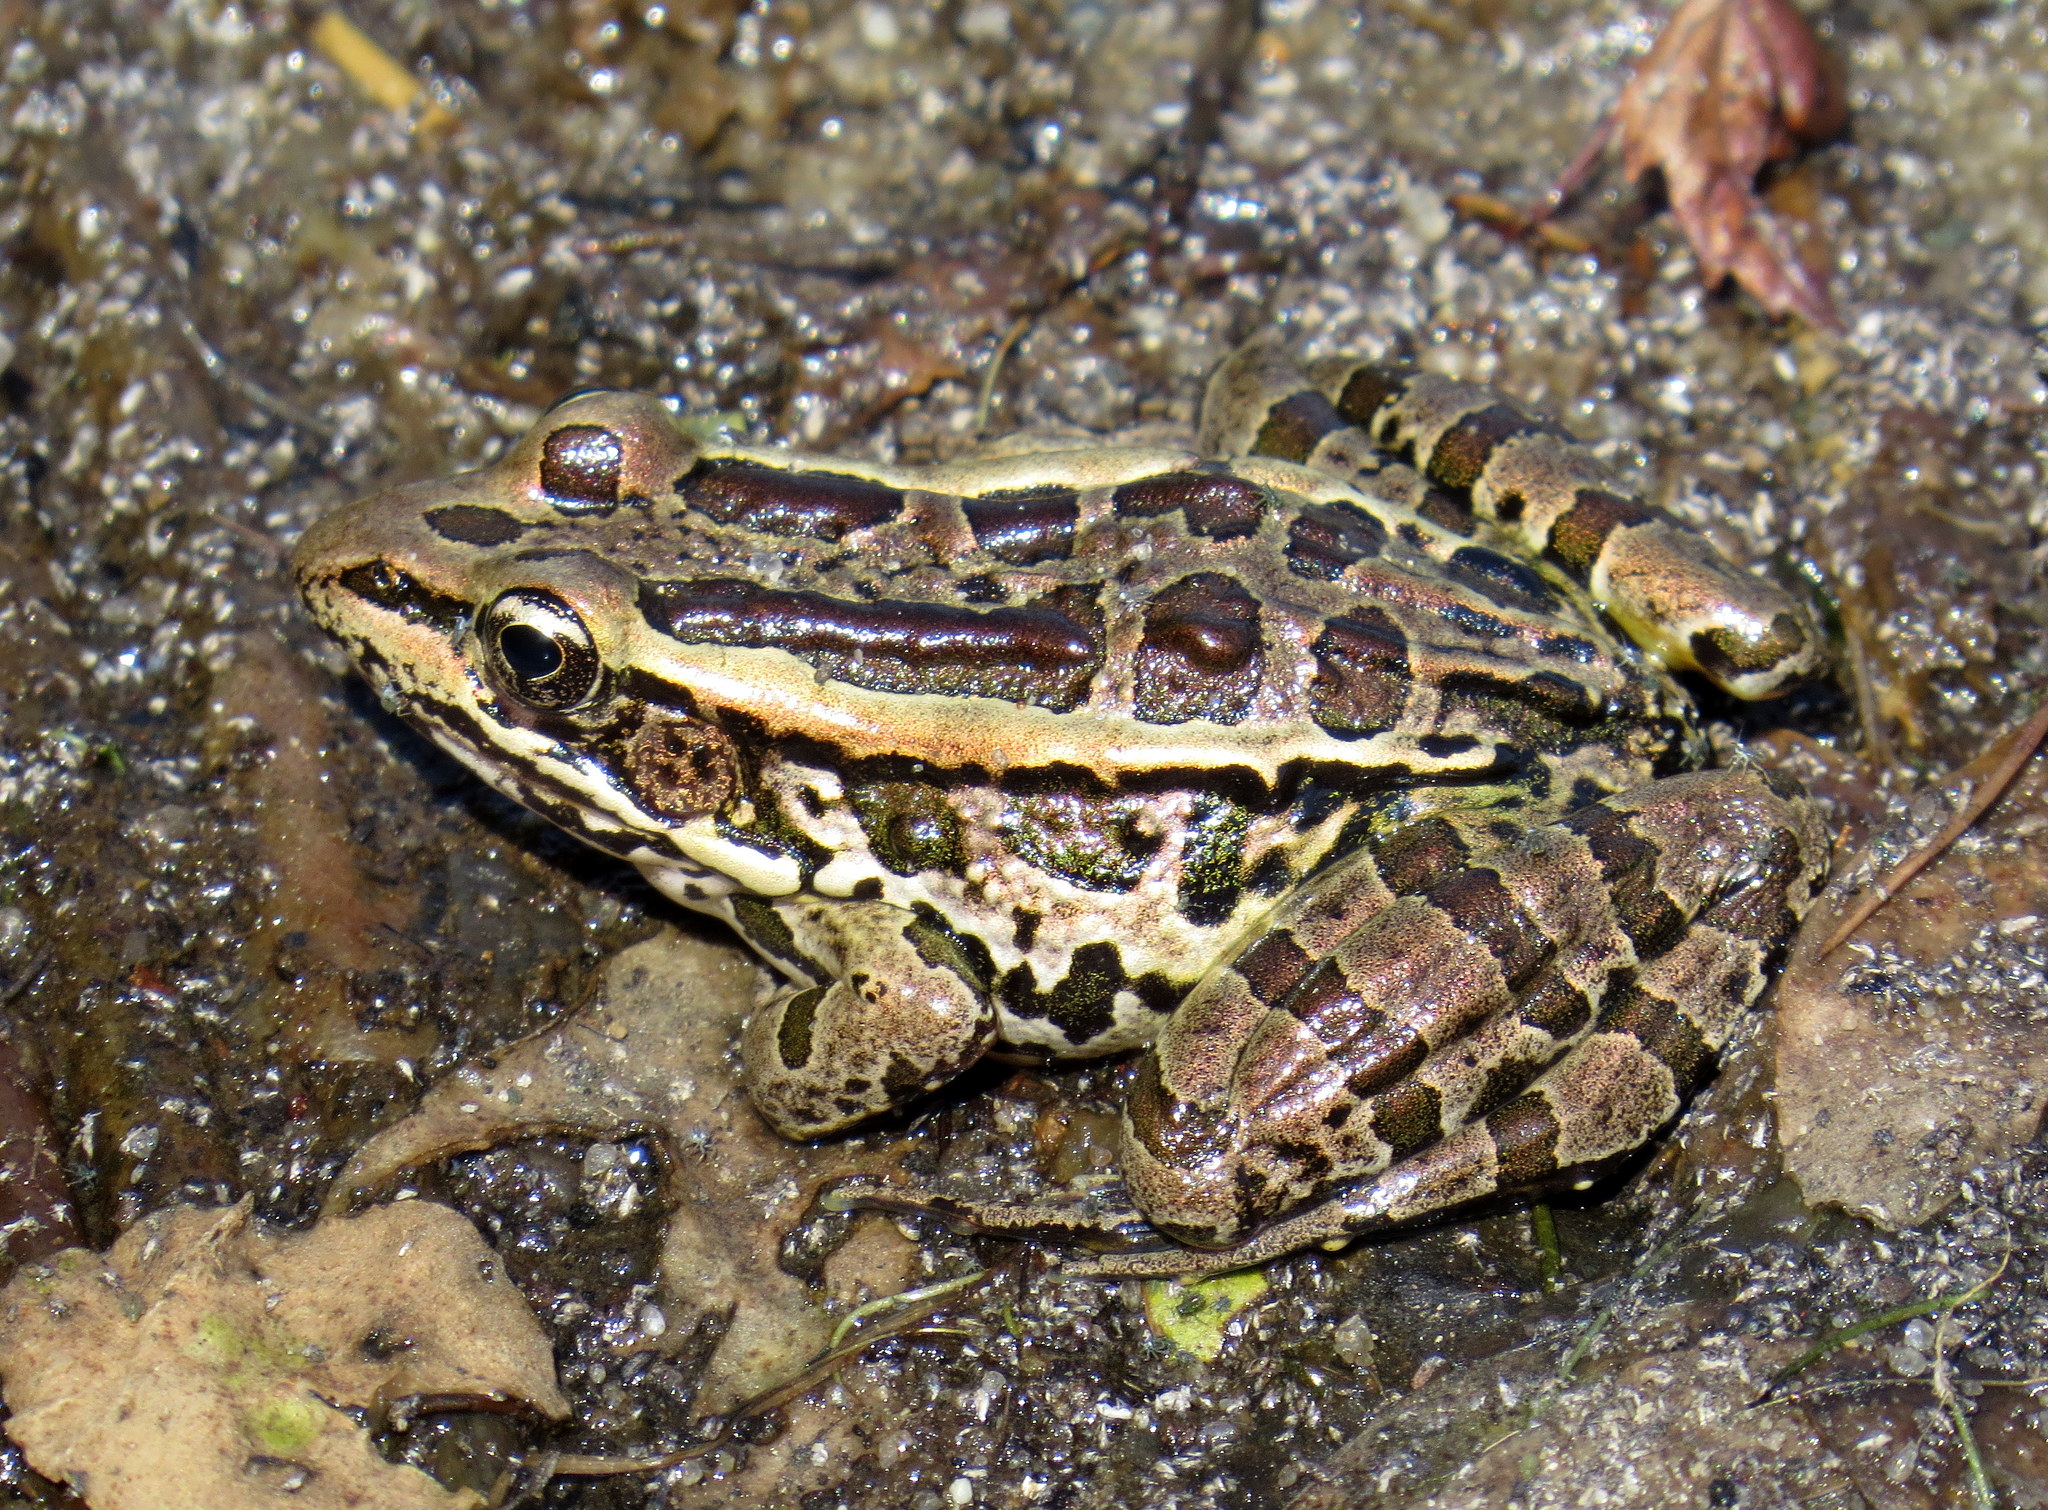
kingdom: Animalia
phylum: Chordata
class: Amphibia
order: Anura
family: Ranidae
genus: Lithobates
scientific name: Lithobates palustris
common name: Pickerel frog
